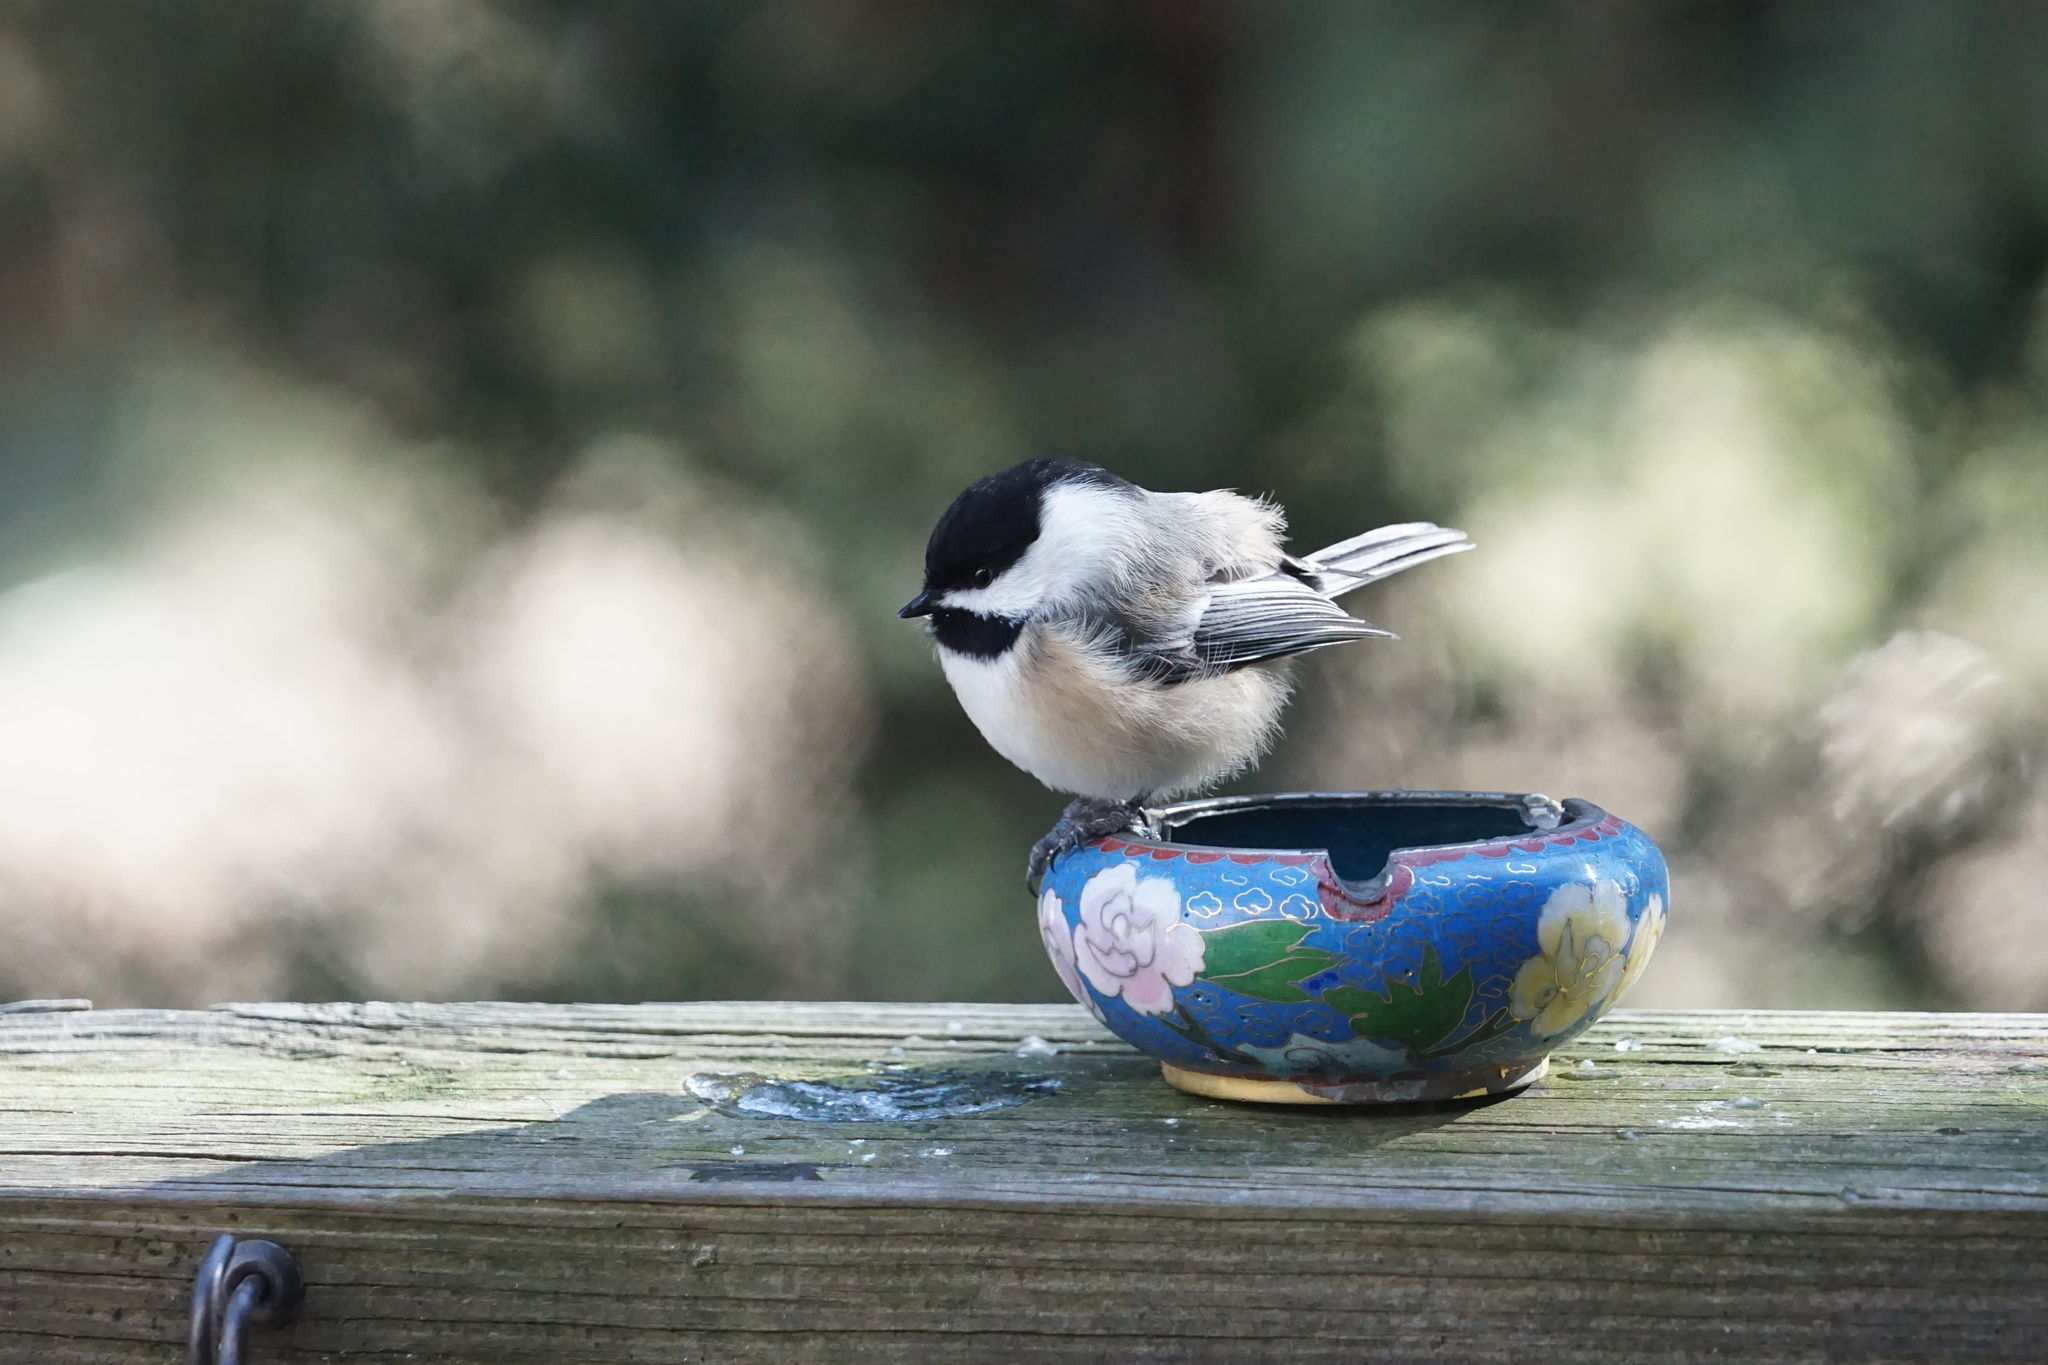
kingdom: Animalia
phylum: Chordata
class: Aves
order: Passeriformes
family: Paridae
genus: Poecile
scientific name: Poecile atricapillus
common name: Black-capped chickadee
